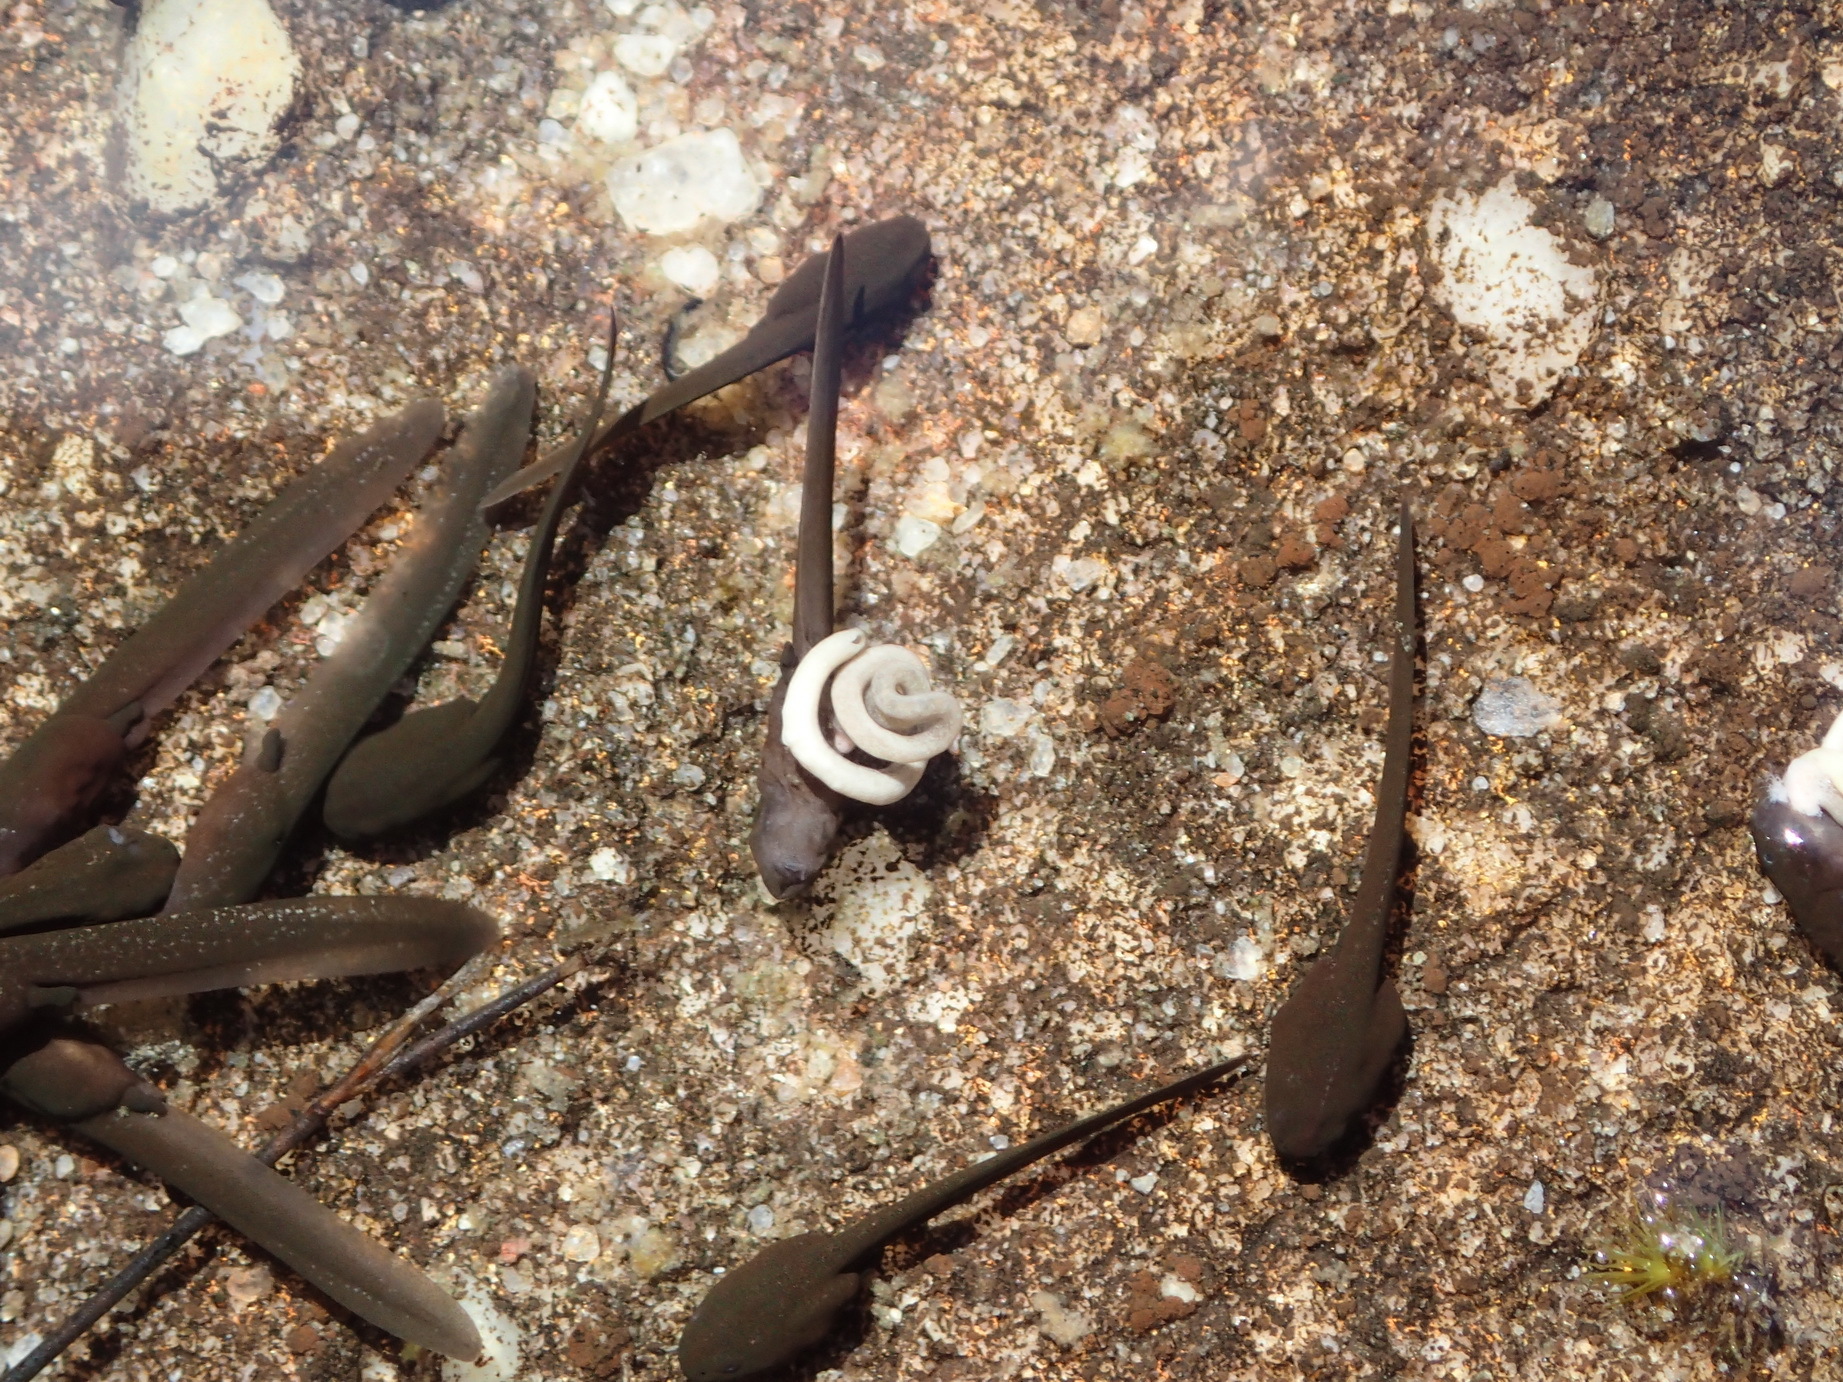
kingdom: Animalia
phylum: Chordata
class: Amphibia
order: Anura
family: Bufonidae
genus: Capensibufo
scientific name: Capensibufo tradouwi
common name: Tradouw mountain toadlet
